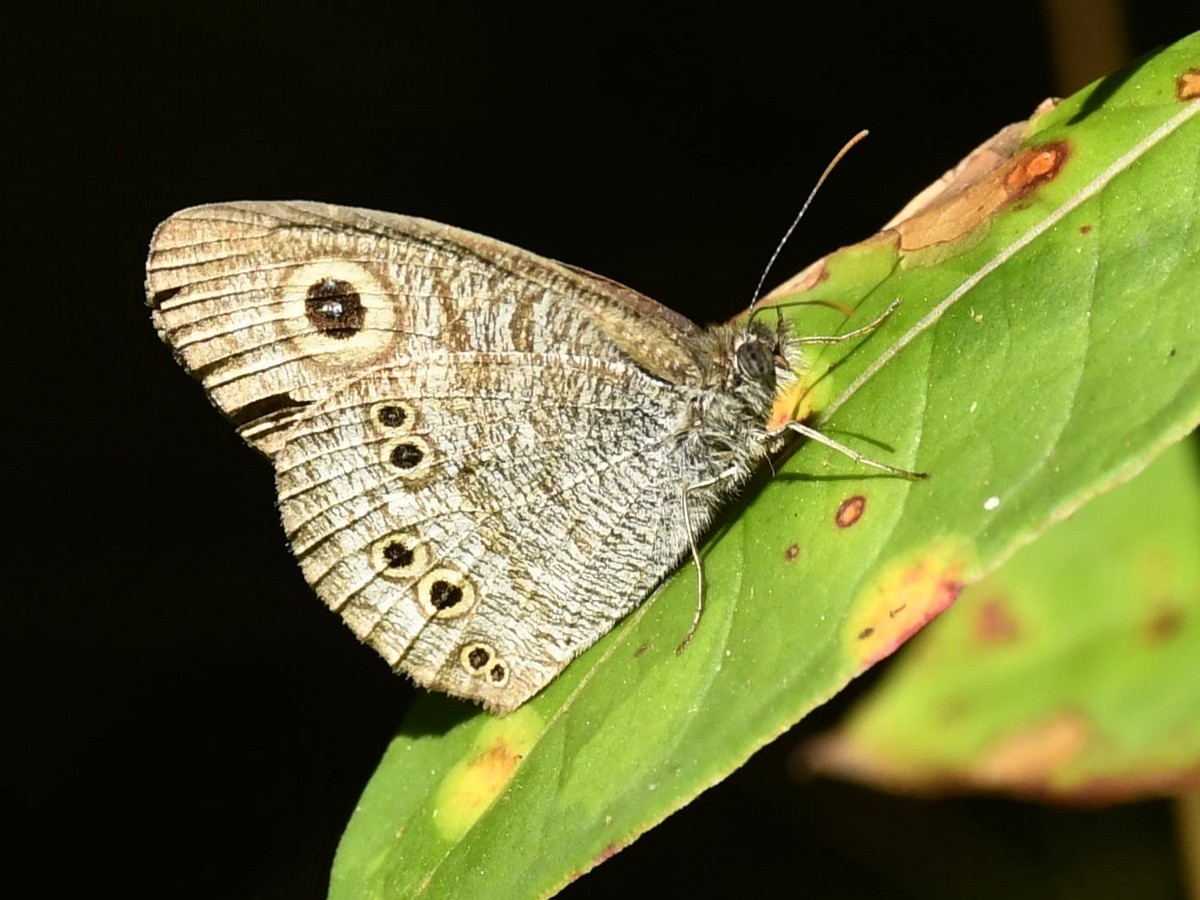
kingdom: Animalia
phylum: Arthropoda
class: Insecta
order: Lepidoptera
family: Nymphalidae
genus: Ypthima
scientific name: Ypthima baldus
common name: Common five-ring
